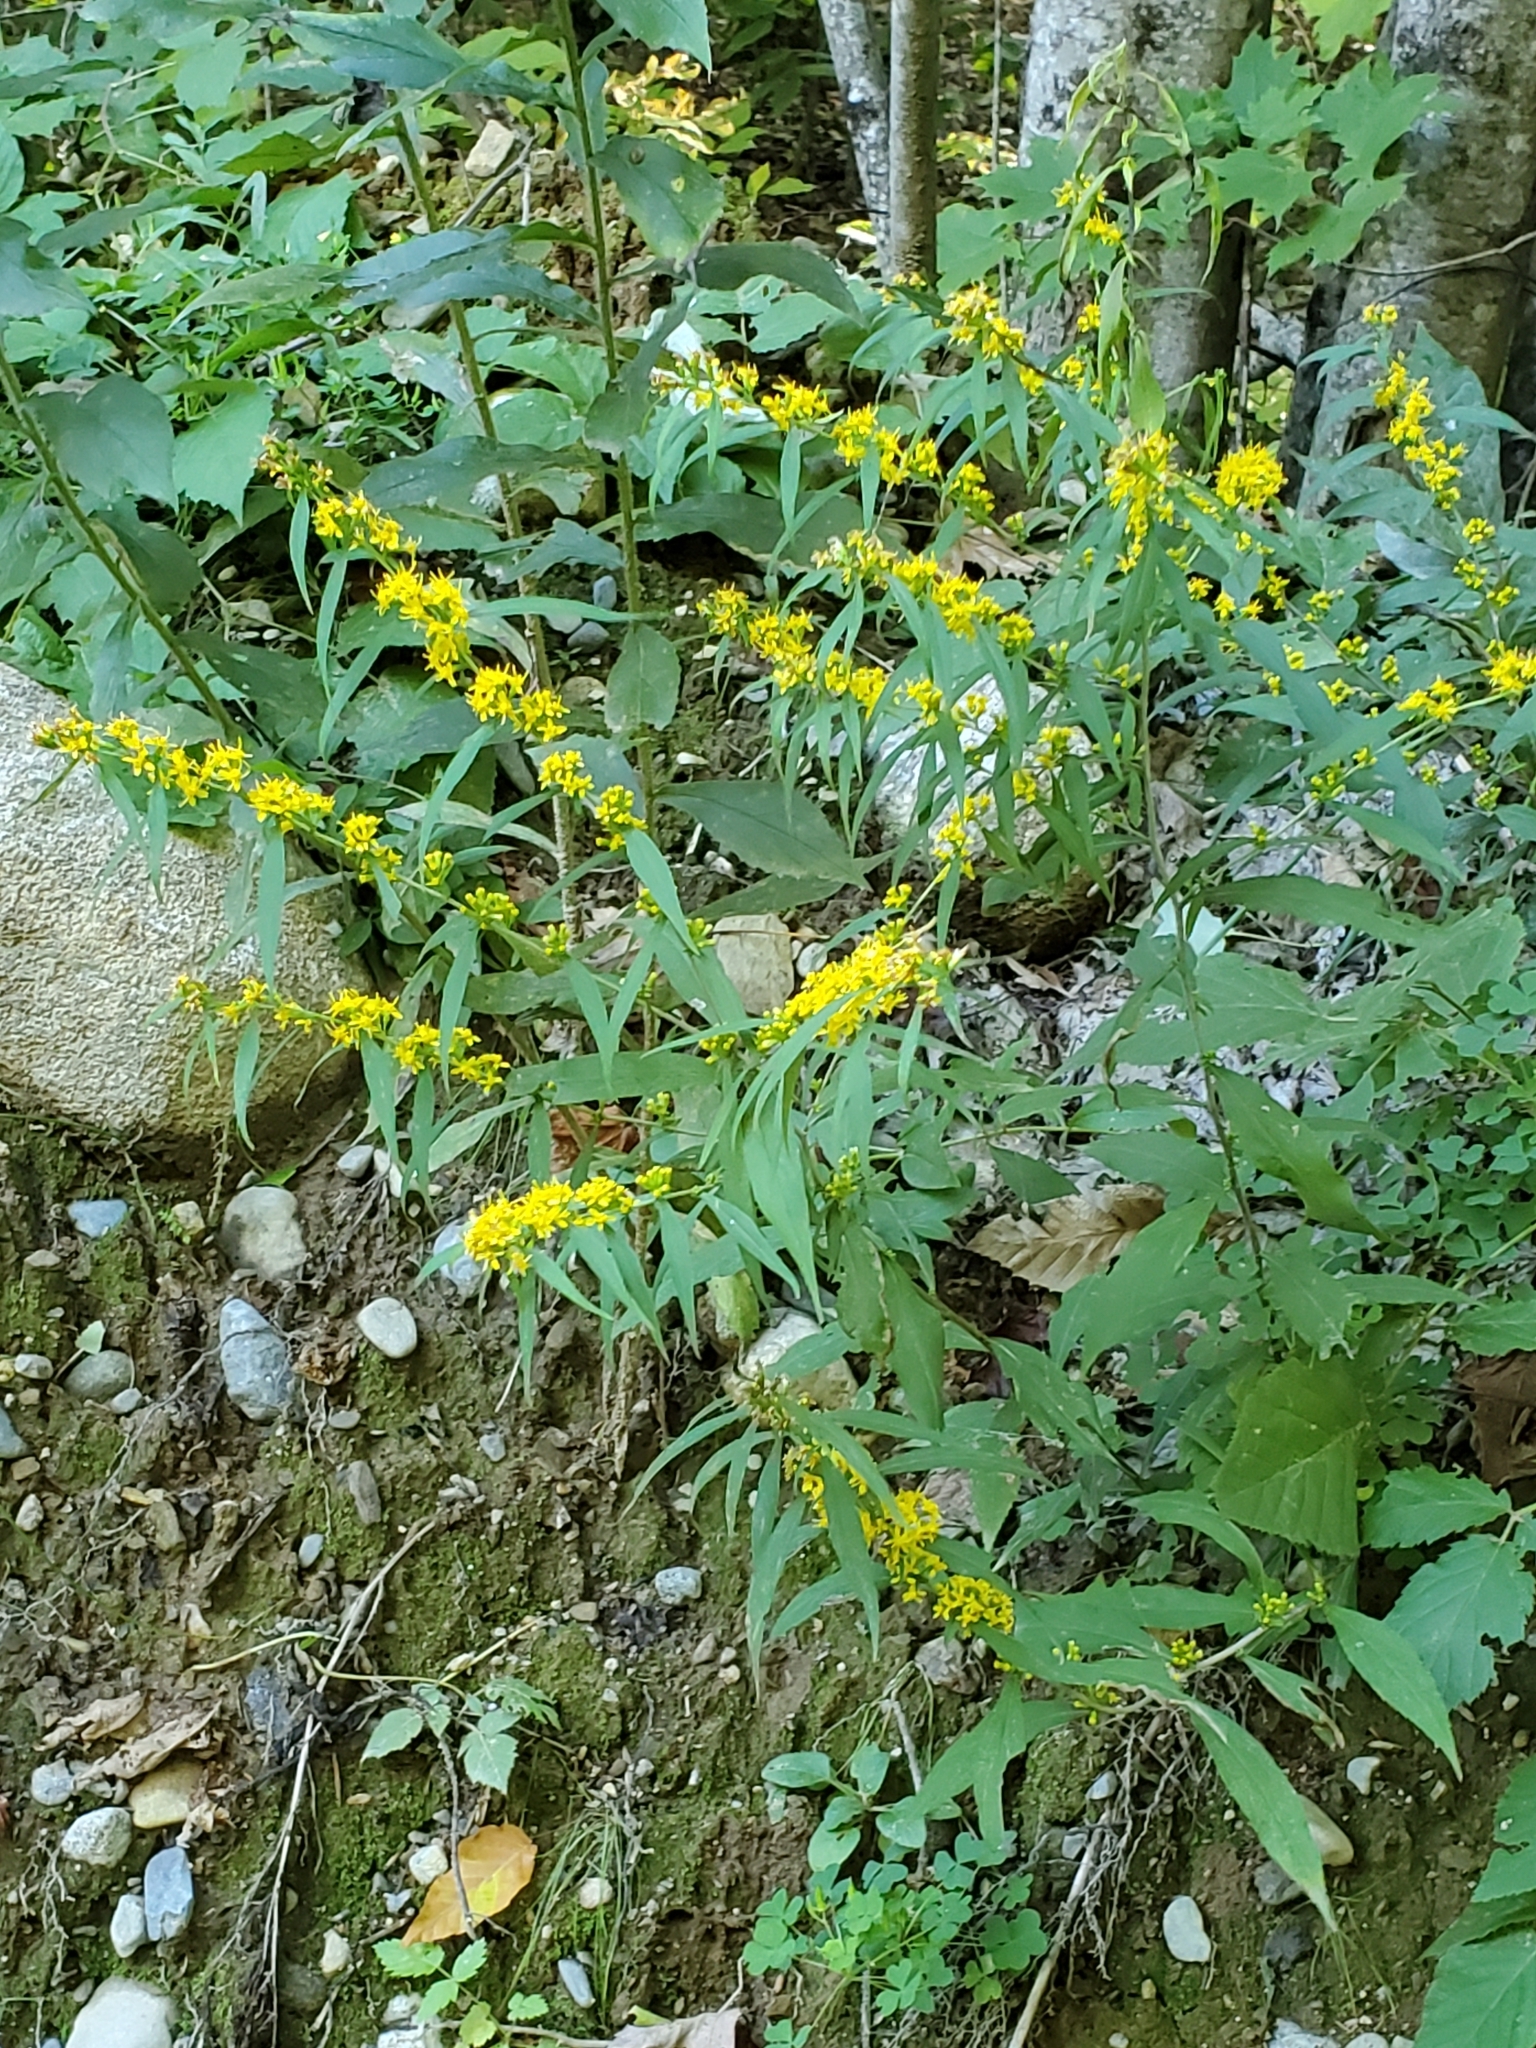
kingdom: Plantae
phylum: Tracheophyta
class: Magnoliopsida
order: Asterales
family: Asteraceae
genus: Solidago
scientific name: Solidago caesia
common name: Woodland goldenrod
